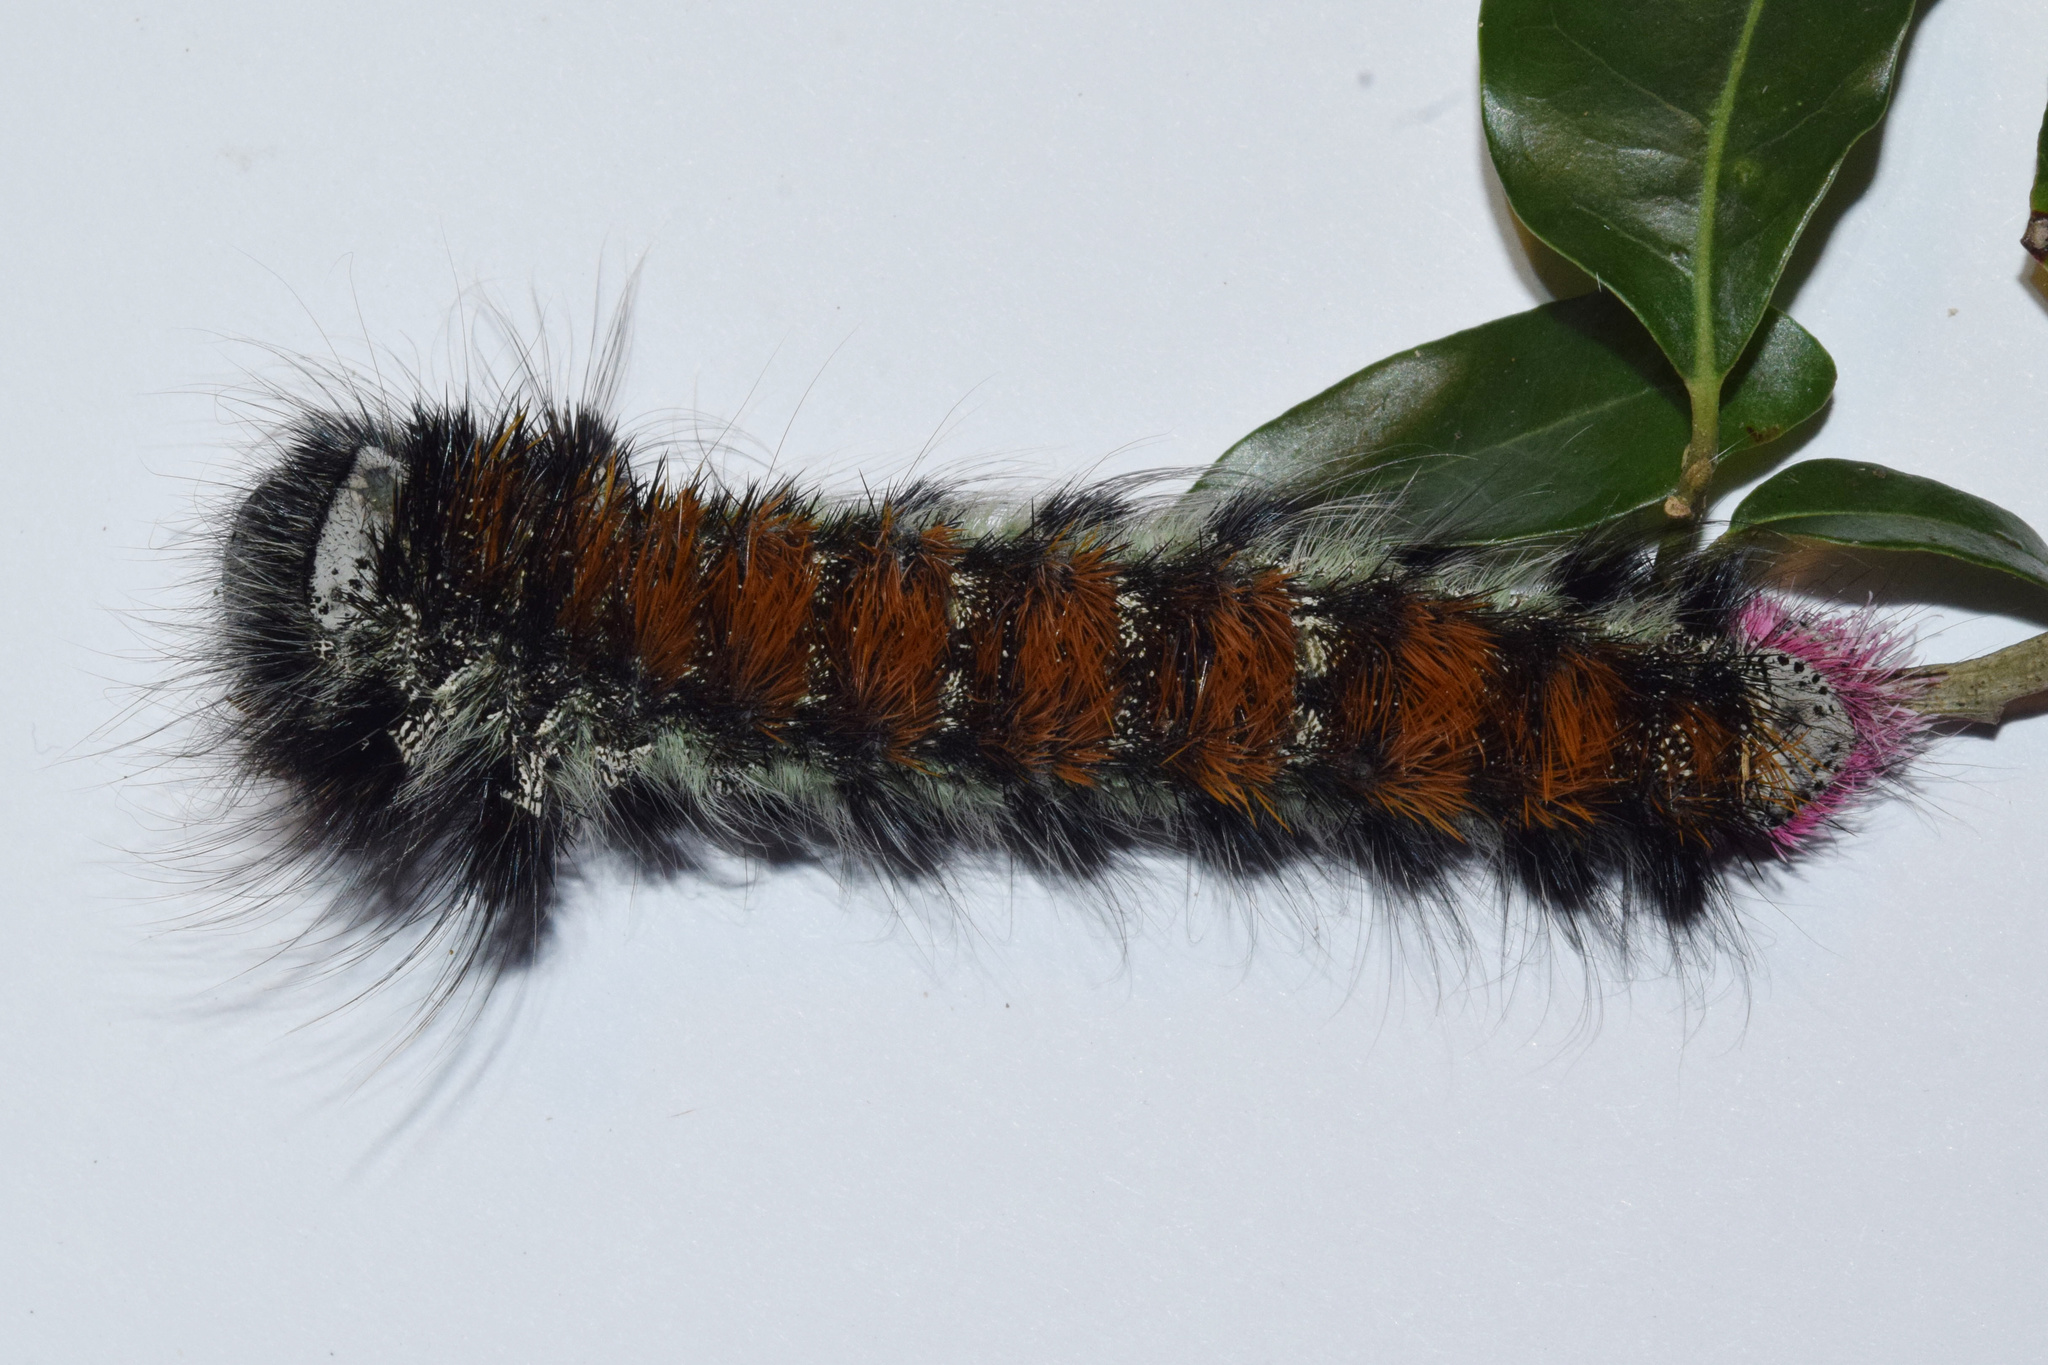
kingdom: Animalia
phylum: Arthropoda
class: Insecta
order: Lepidoptera
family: Lasiocampidae
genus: Catalebeda
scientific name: Catalebeda cuneilinea
